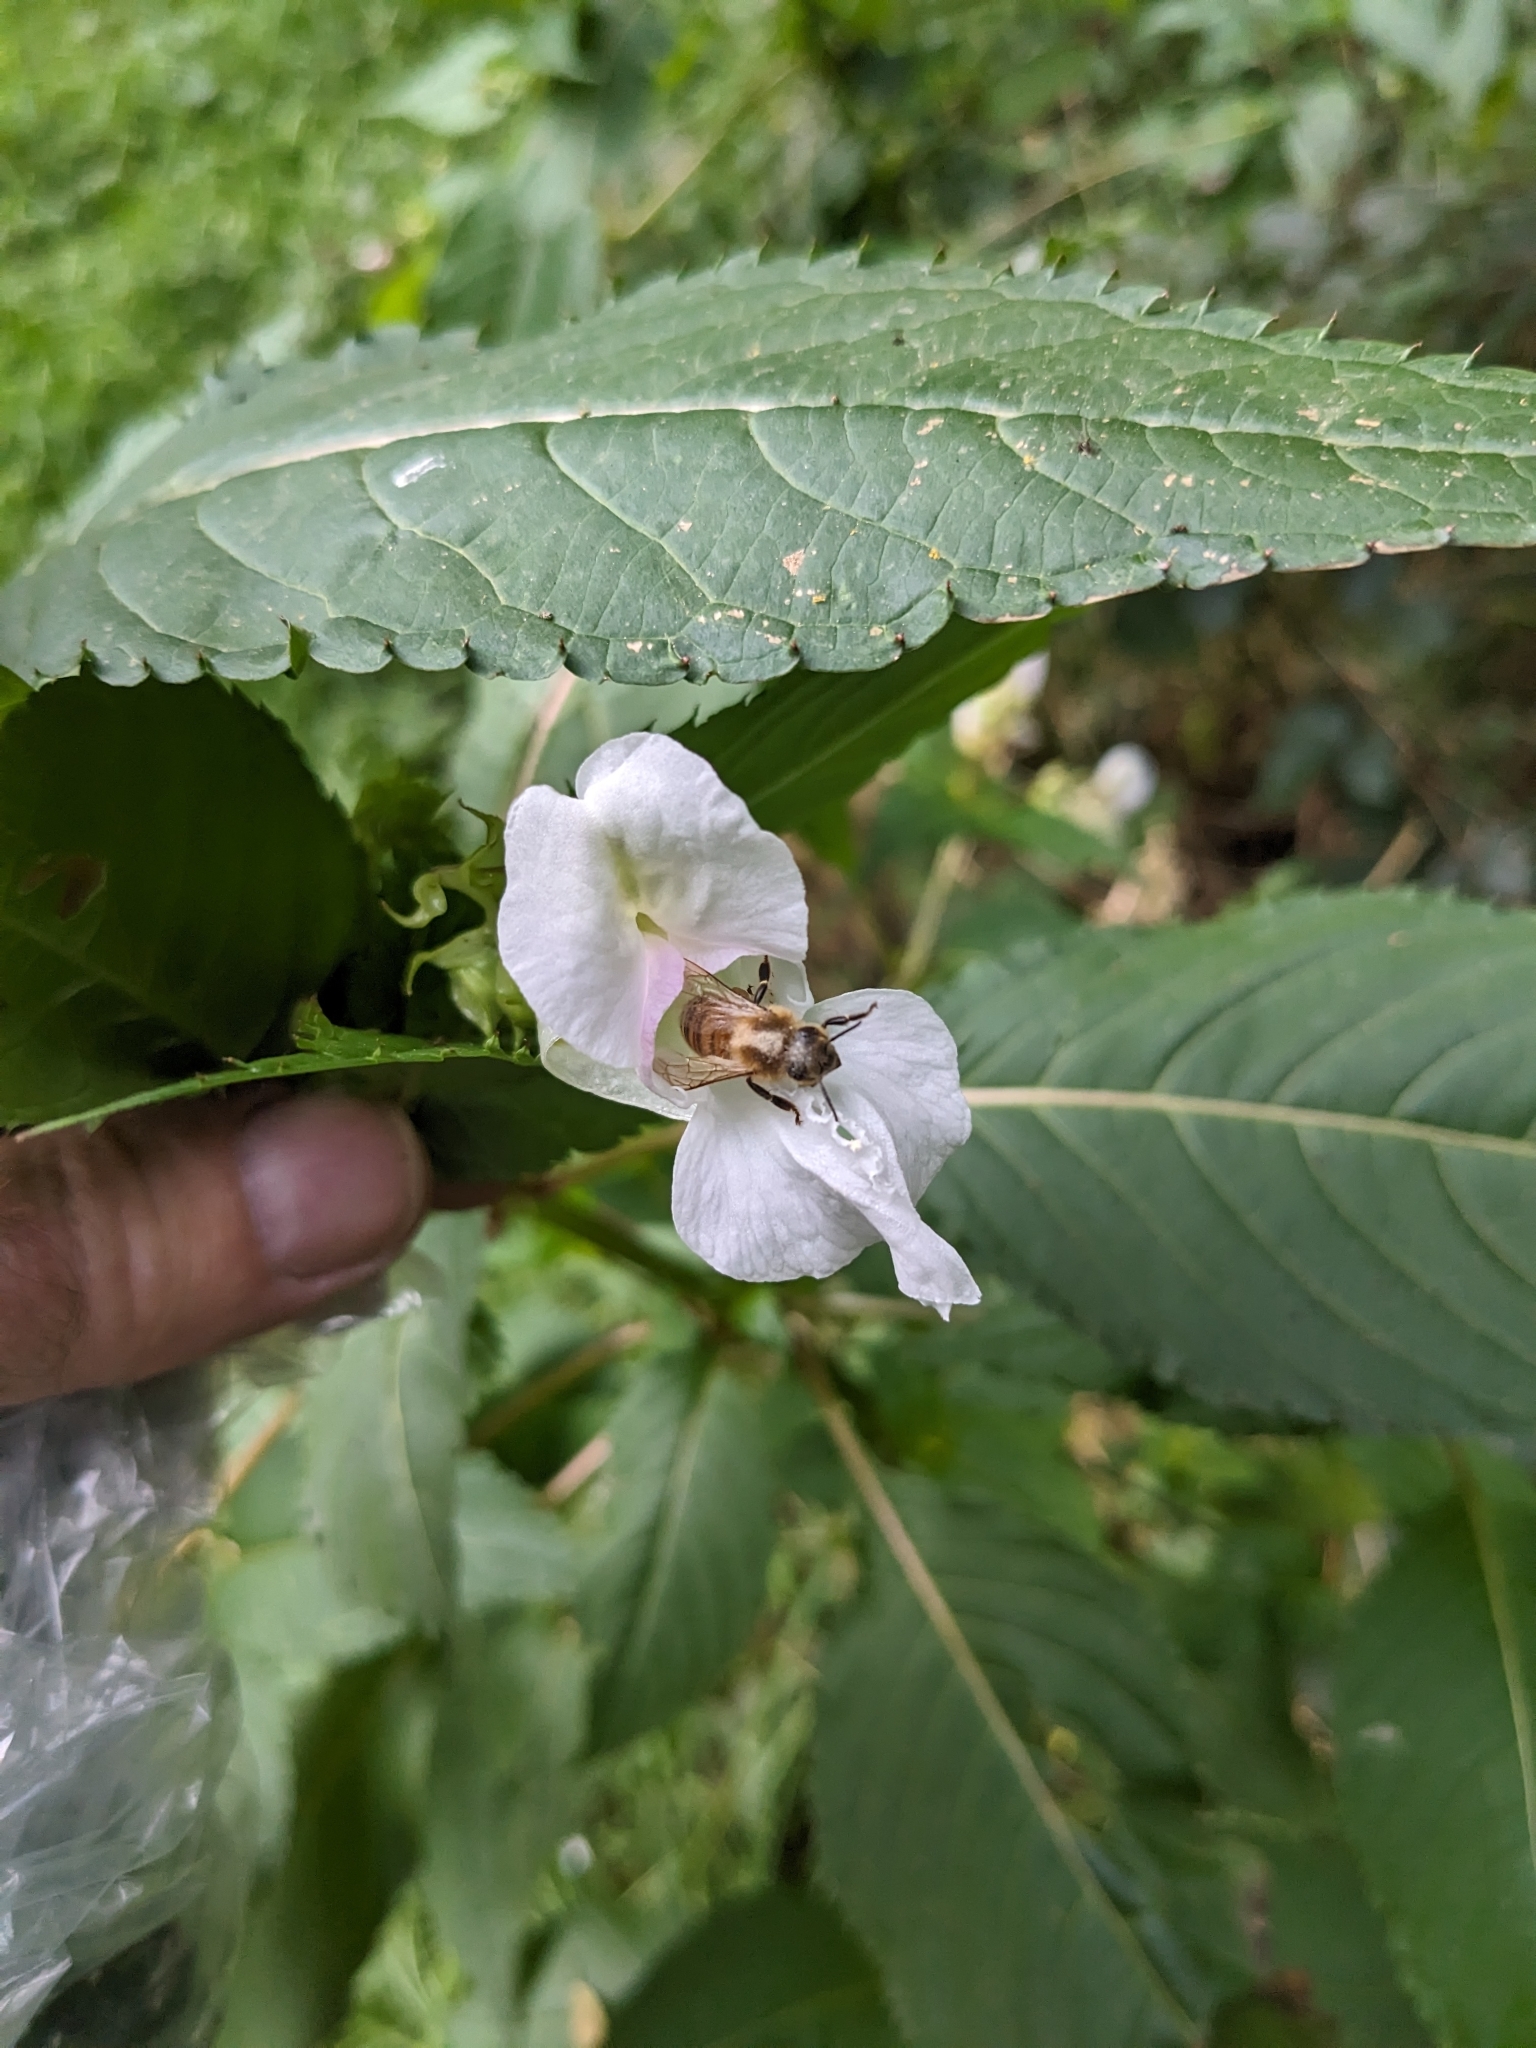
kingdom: Plantae
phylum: Tracheophyta
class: Magnoliopsida
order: Ericales
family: Balsaminaceae
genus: Impatiens
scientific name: Impatiens glandulifera
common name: Himalayan balsam
